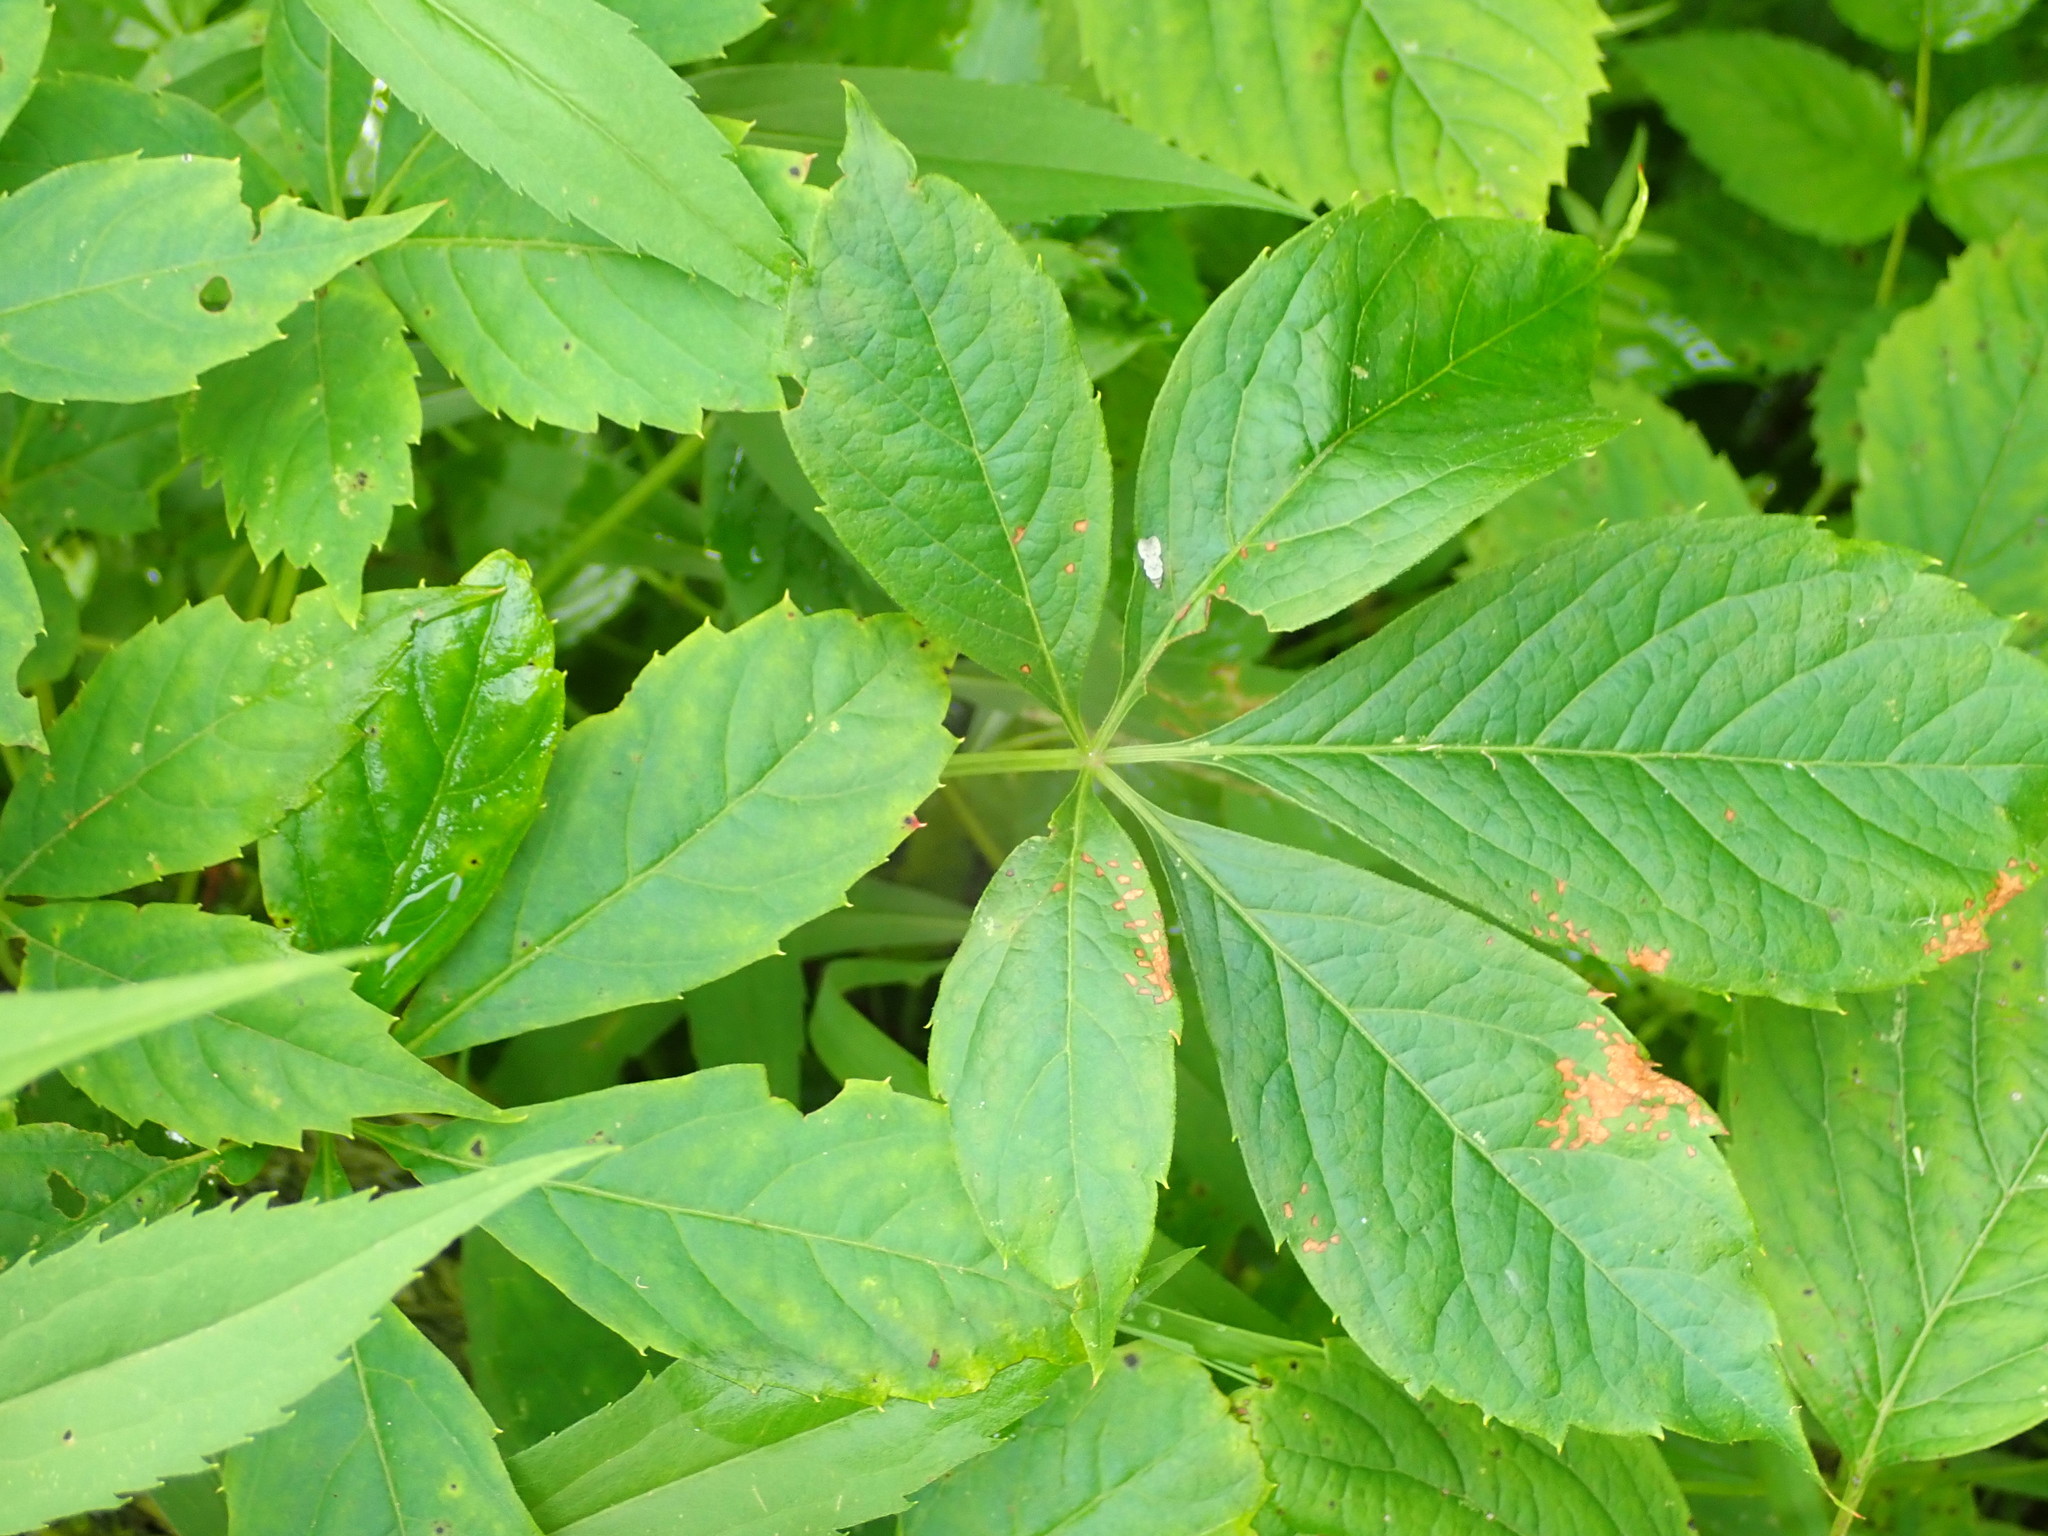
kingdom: Plantae
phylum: Tracheophyta
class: Magnoliopsida
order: Vitales
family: Vitaceae
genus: Parthenocissus
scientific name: Parthenocissus quinquefolia
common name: Virginia-creeper
